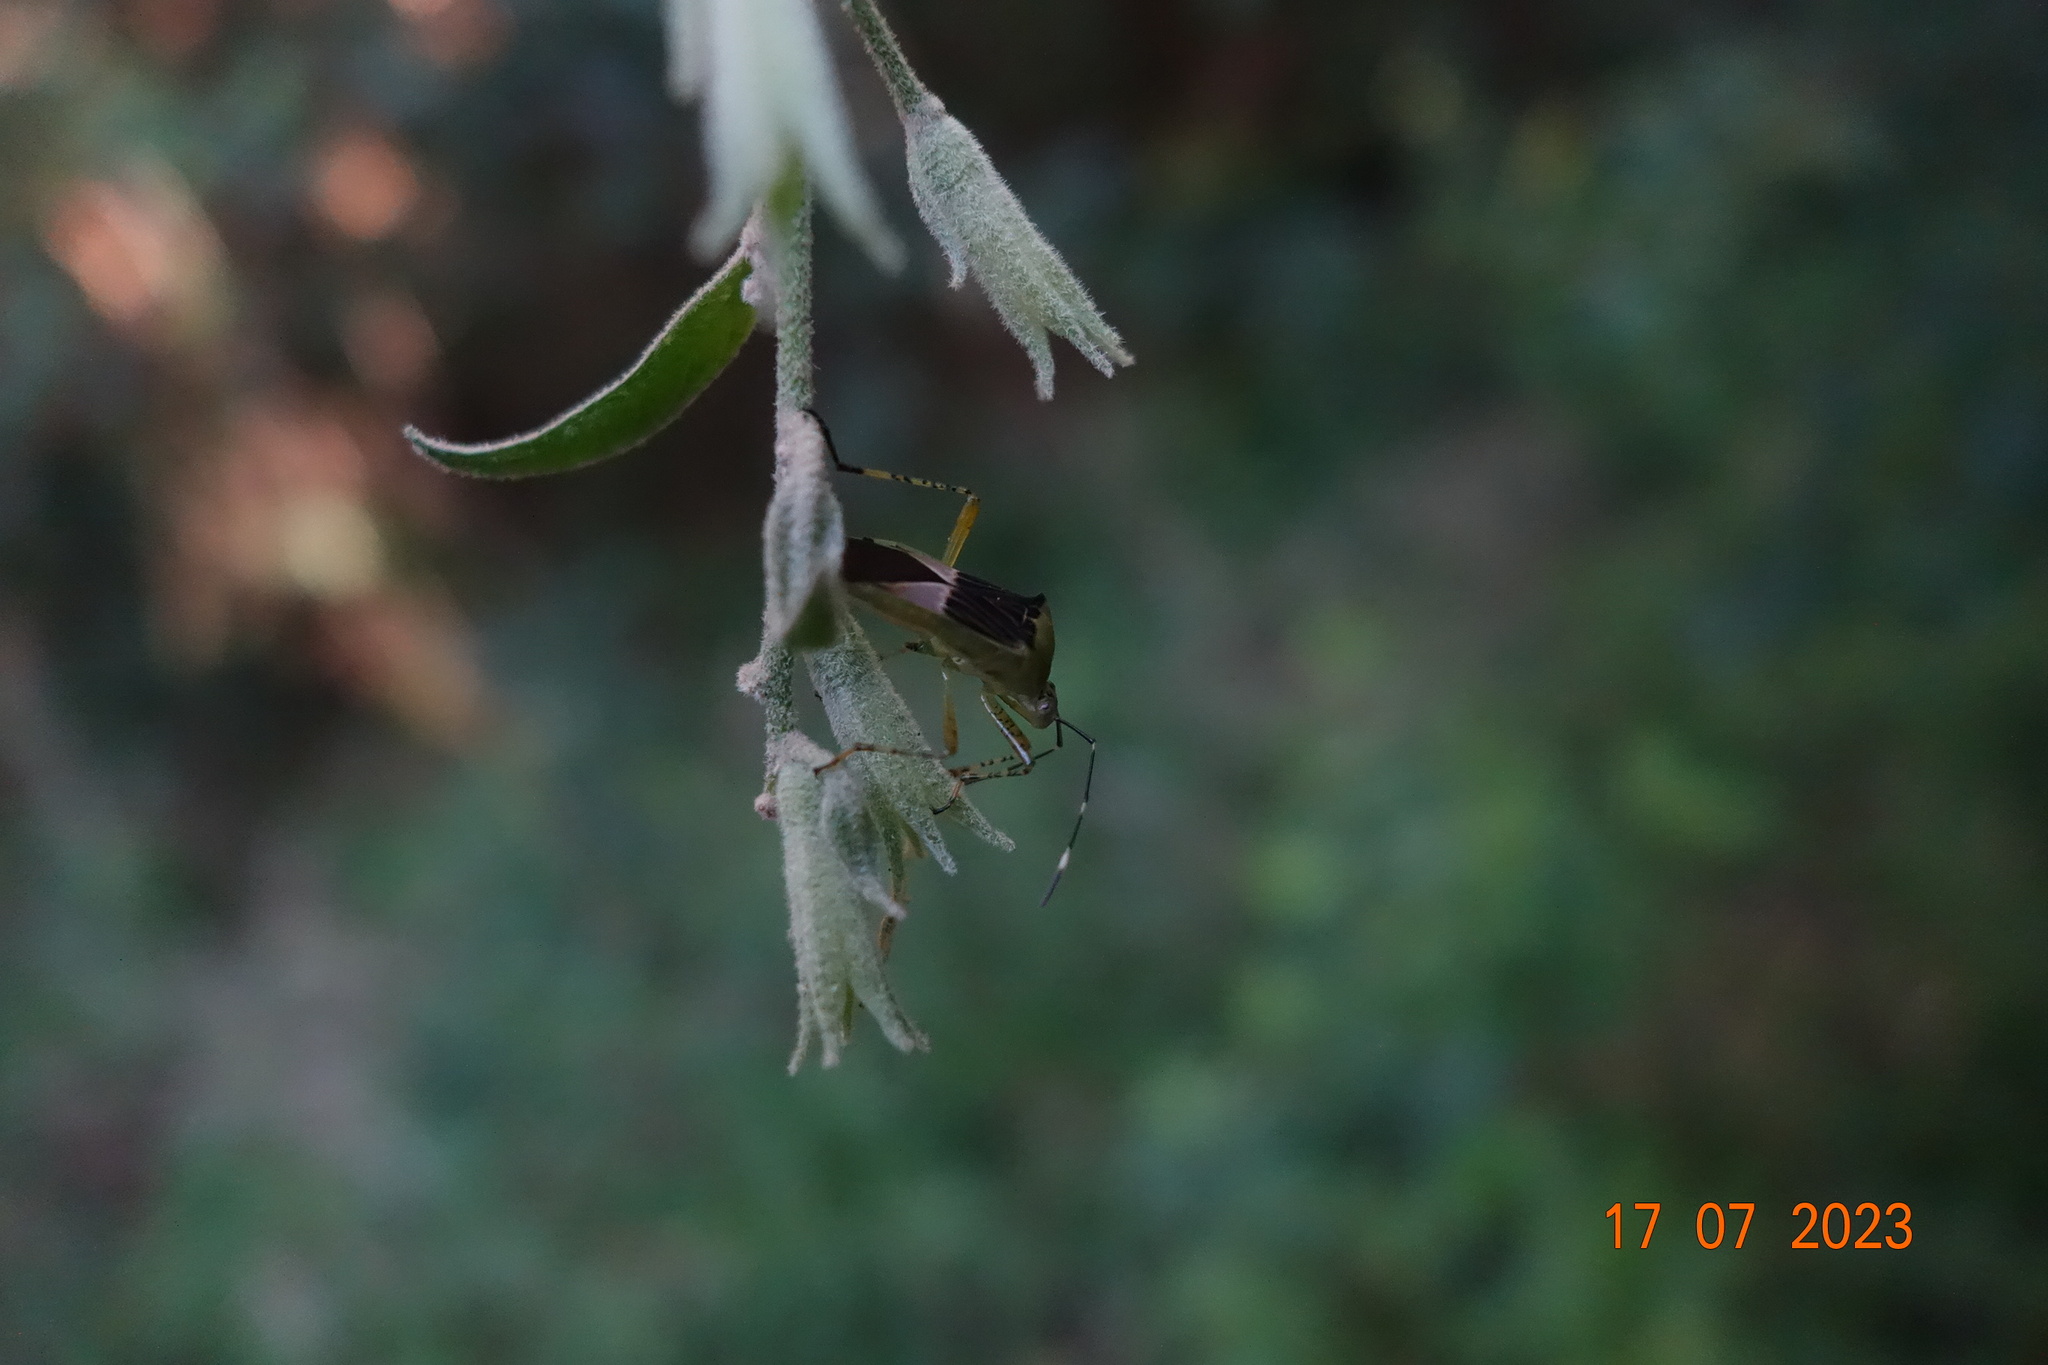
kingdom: Animalia
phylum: Arthropoda
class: Insecta
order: Hemiptera
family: Coreidae
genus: Hypselonotus
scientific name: Hypselonotus fulvus
